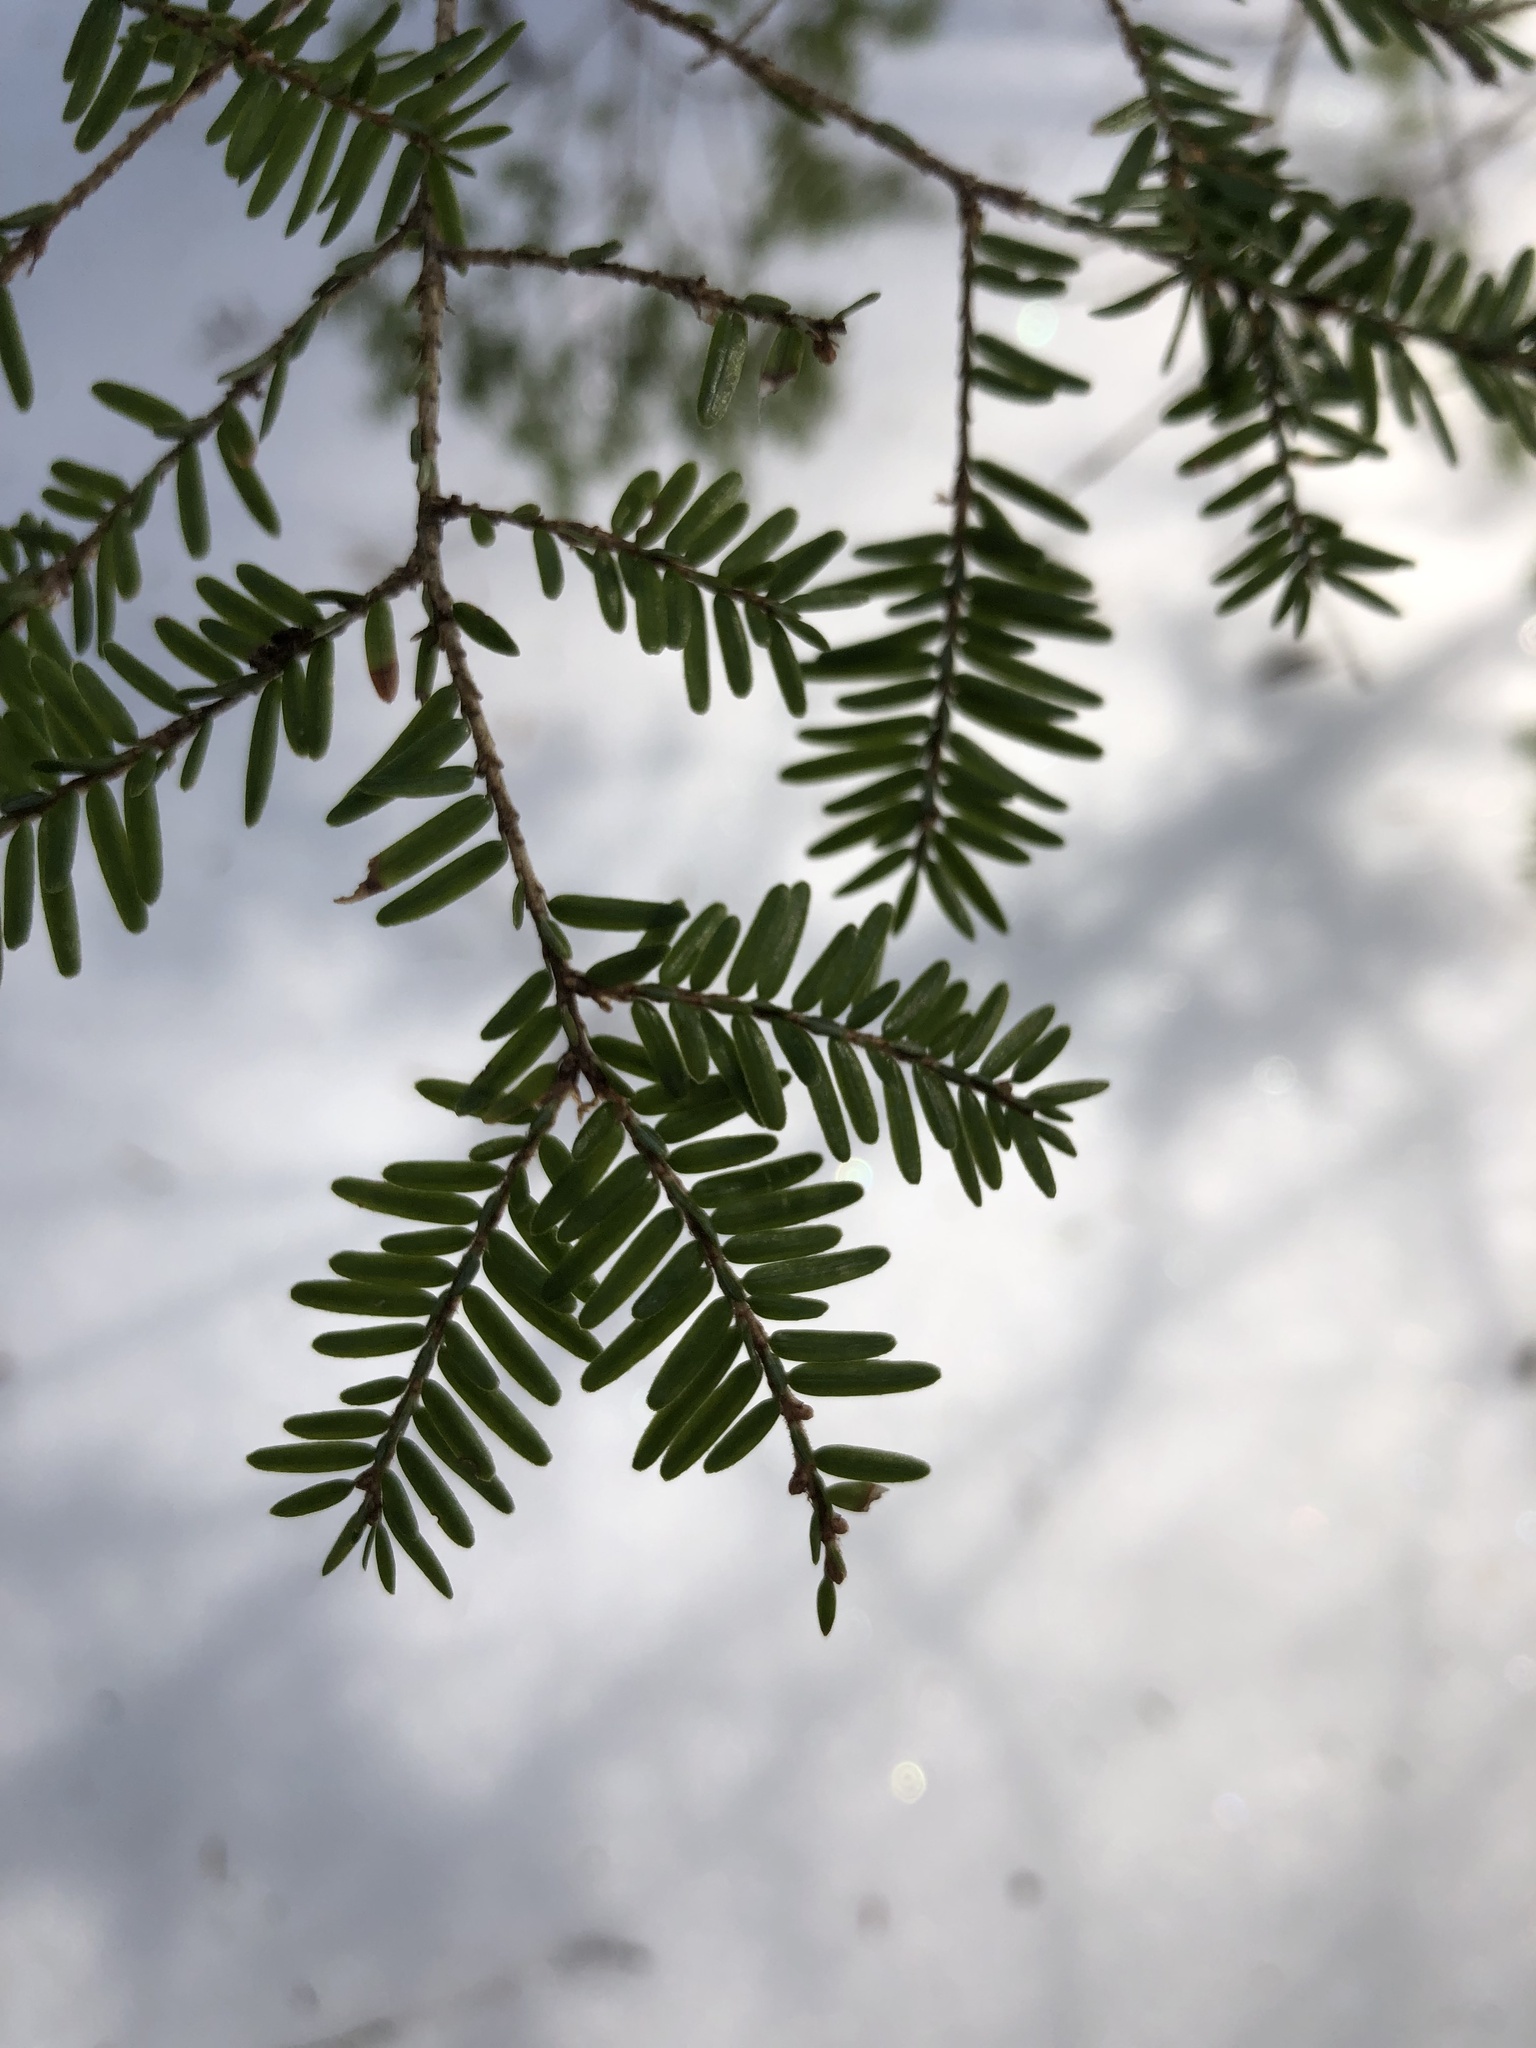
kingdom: Plantae
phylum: Tracheophyta
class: Pinopsida
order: Pinales
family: Pinaceae
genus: Tsuga
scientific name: Tsuga canadensis
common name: Eastern hemlock
